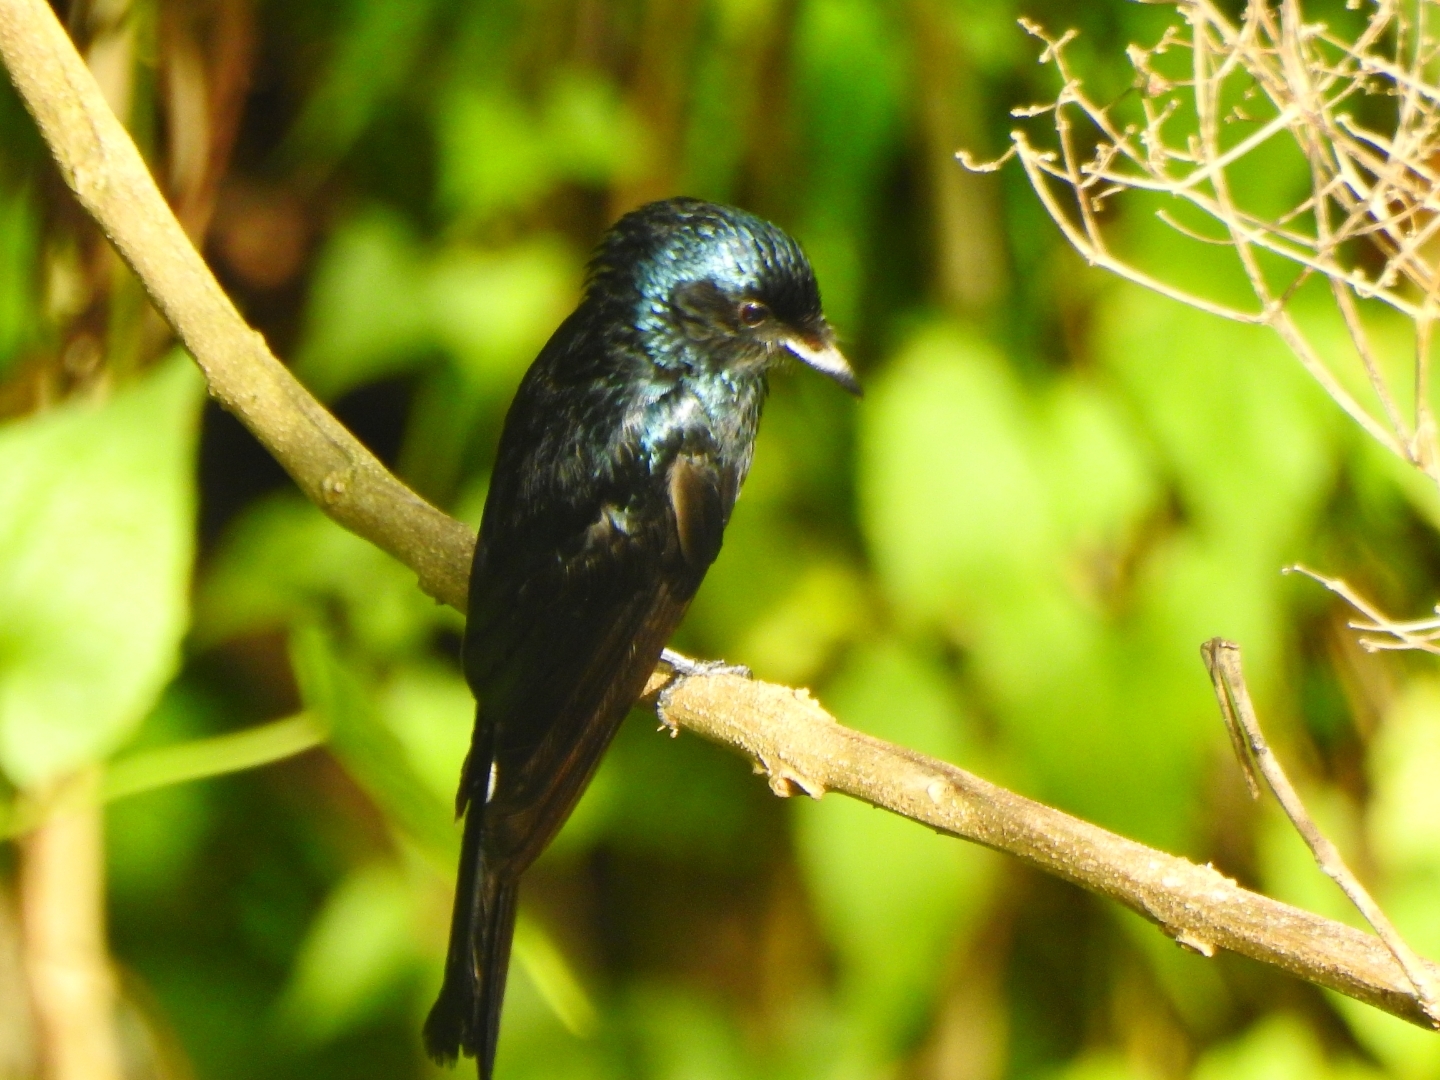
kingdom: Animalia
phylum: Chordata
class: Aves
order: Passeriformes
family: Dicruridae
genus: Dicrurus
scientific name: Dicrurus aeneus
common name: Bronzed drongo
